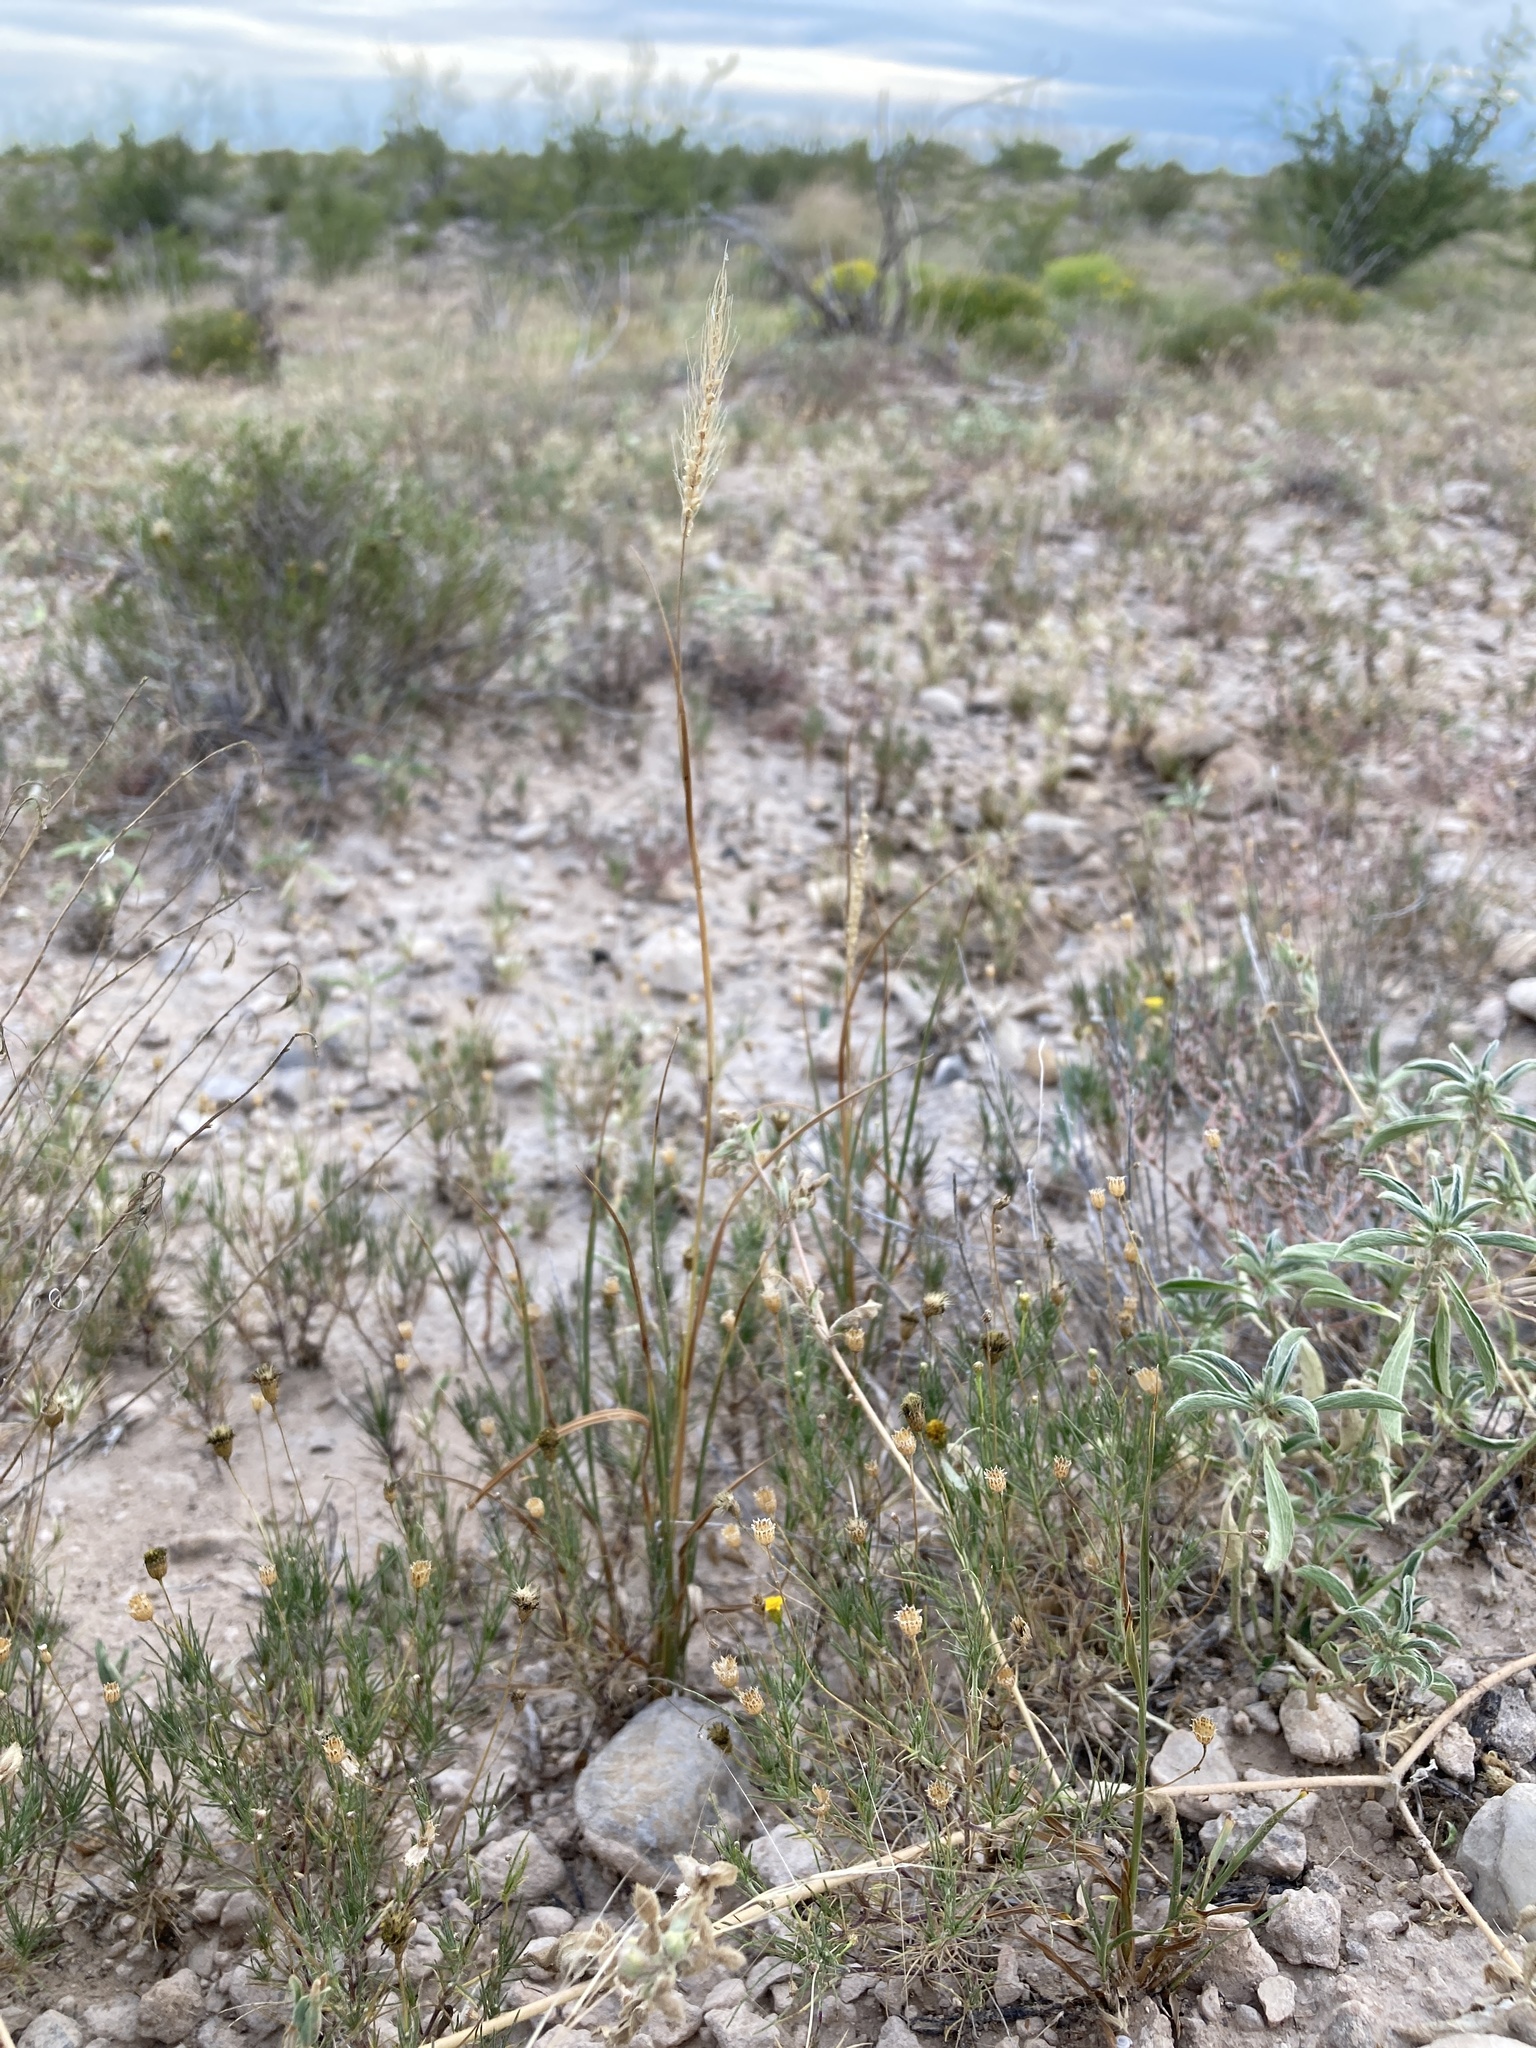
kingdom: Plantae
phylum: Tracheophyta
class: Liliopsida
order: Poales
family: Poaceae
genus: Setaria
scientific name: Setaria parviflora
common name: Knotroot bristle-grass
